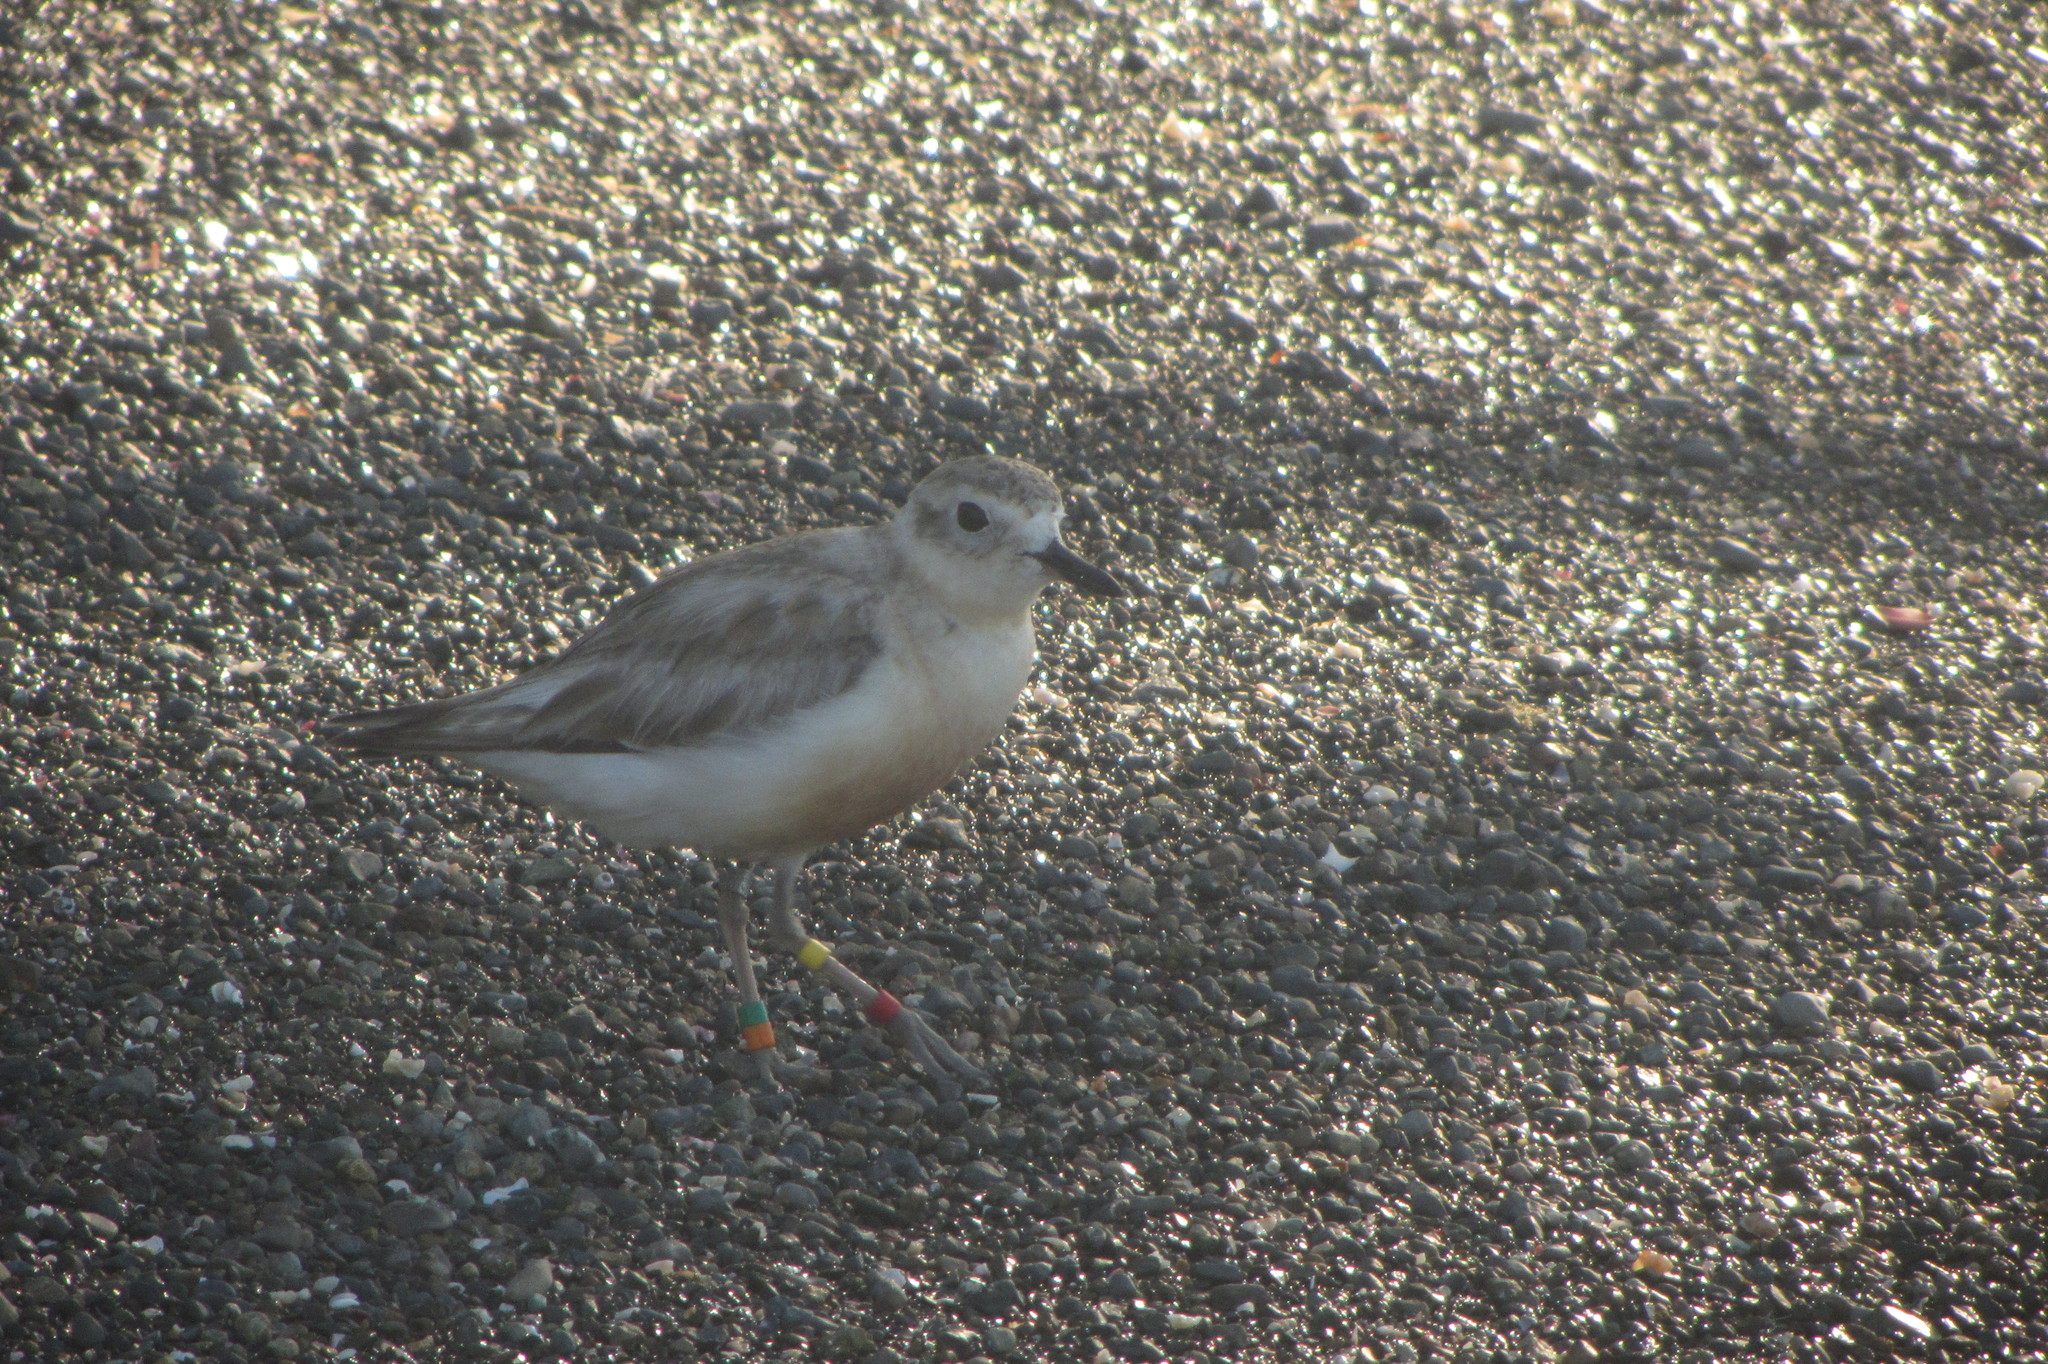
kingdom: Animalia
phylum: Chordata
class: Aves
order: Charadriiformes
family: Charadriidae
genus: Anarhynchus
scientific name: Anarhynchus
